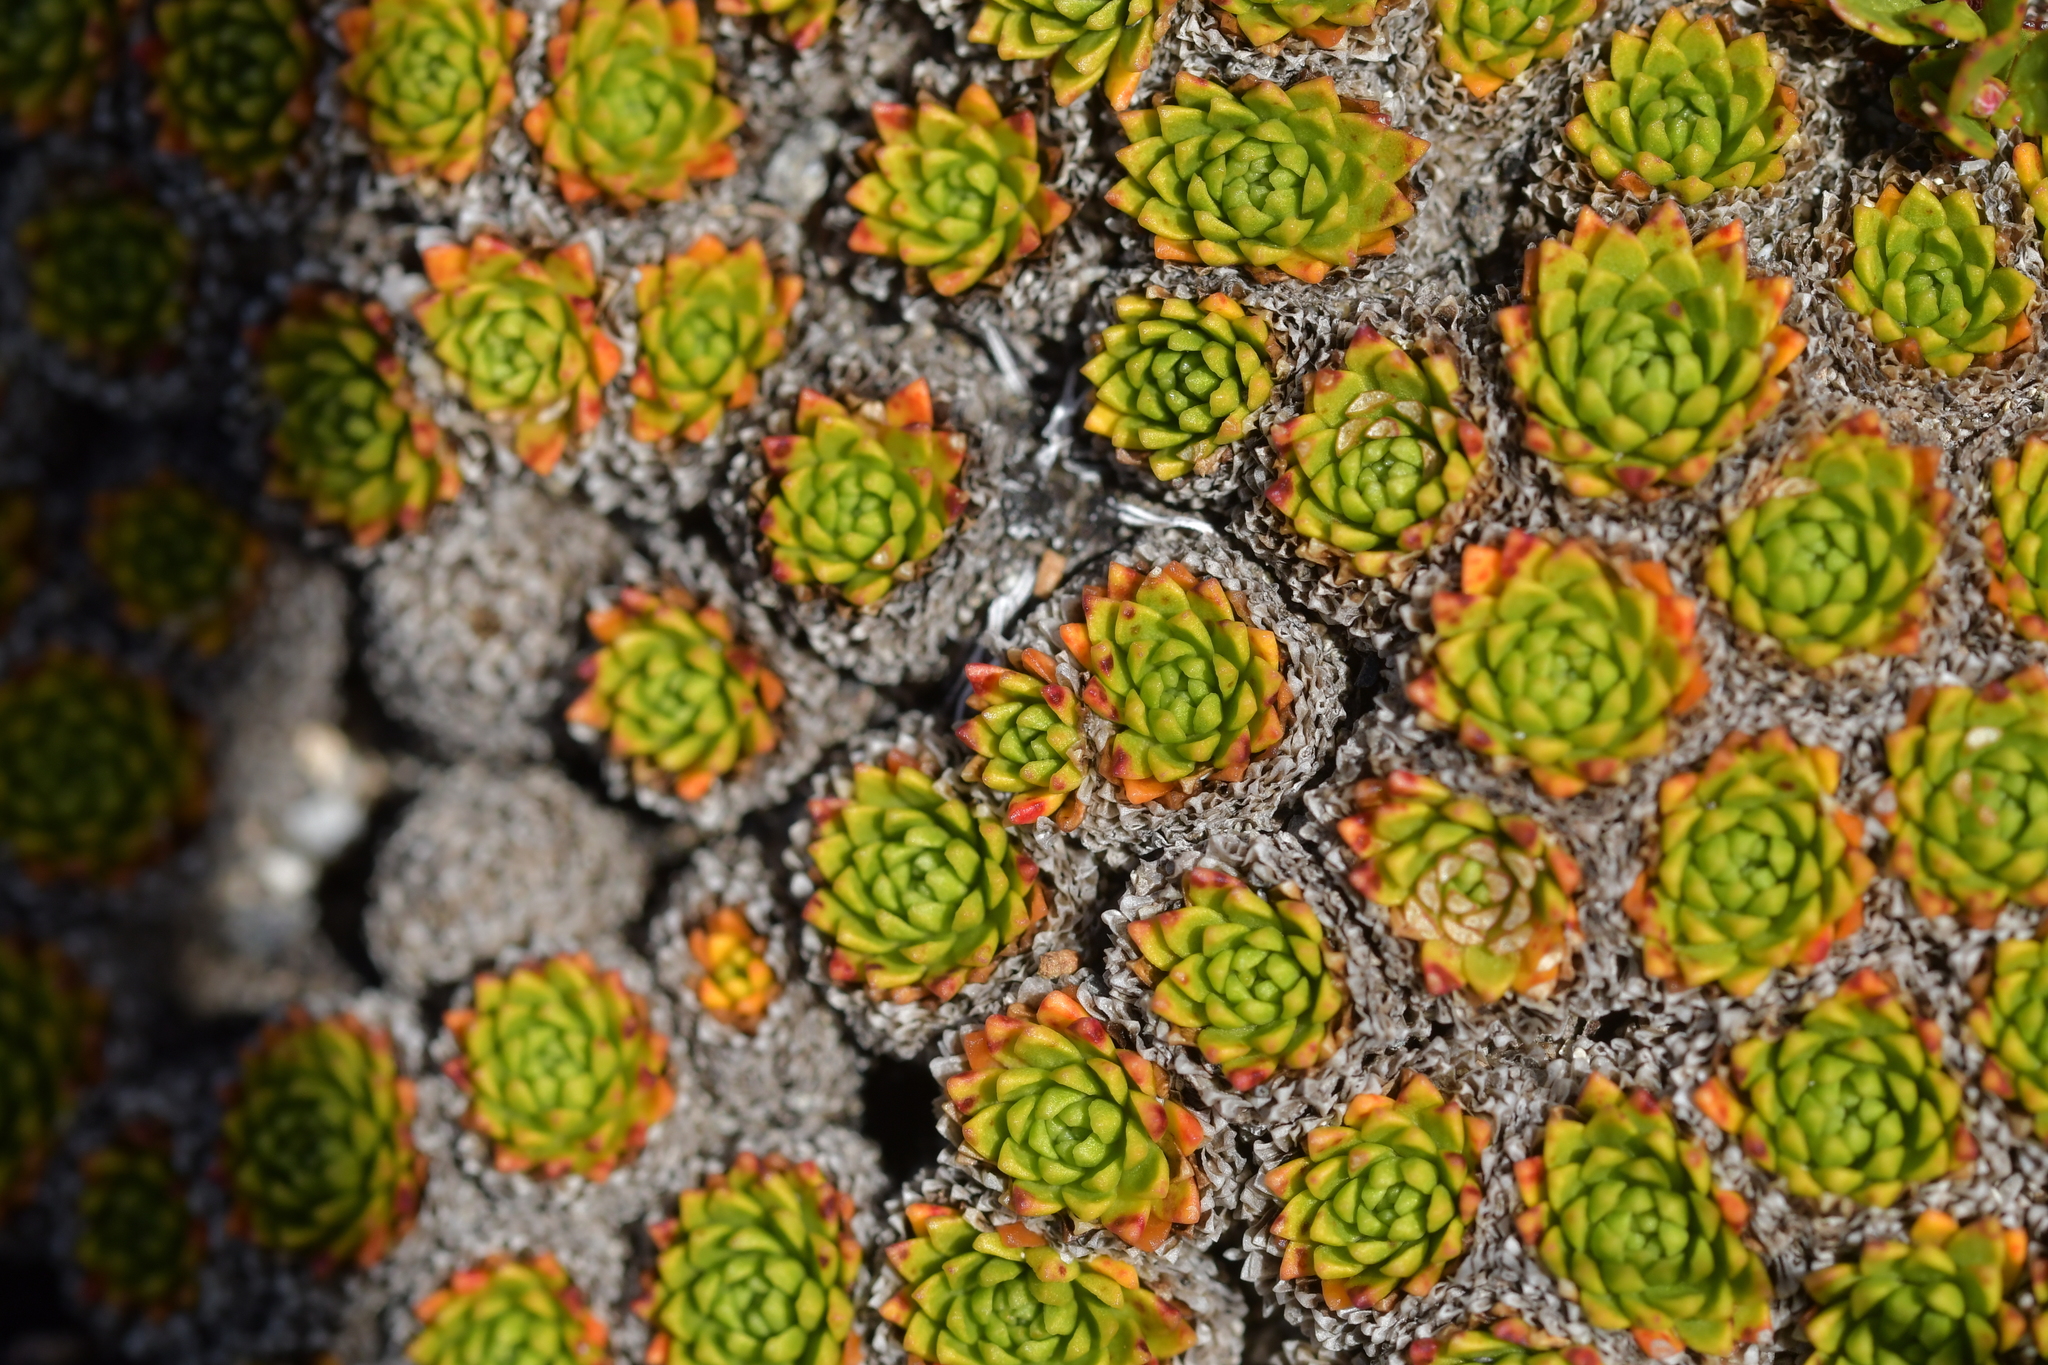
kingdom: Plantae
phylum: Tracheophyta
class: Magnoliopsida
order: Caryophyllales
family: Montiaceae
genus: Hectorella
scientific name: Hectorella caespitosa
